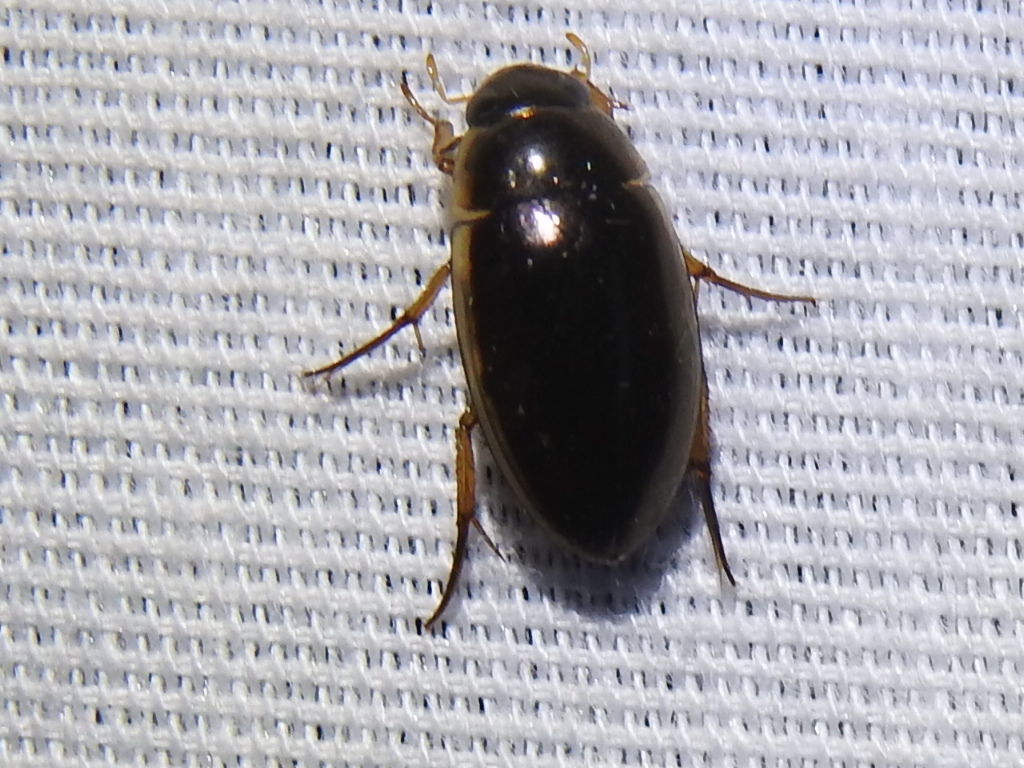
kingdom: Animalia
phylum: Arthropoda
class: Insecta
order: Coleoptera
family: Hydrophilidae
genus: Tropisternus
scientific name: Tropisternus lateralis
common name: Lateral-banded water scavenger beetle
